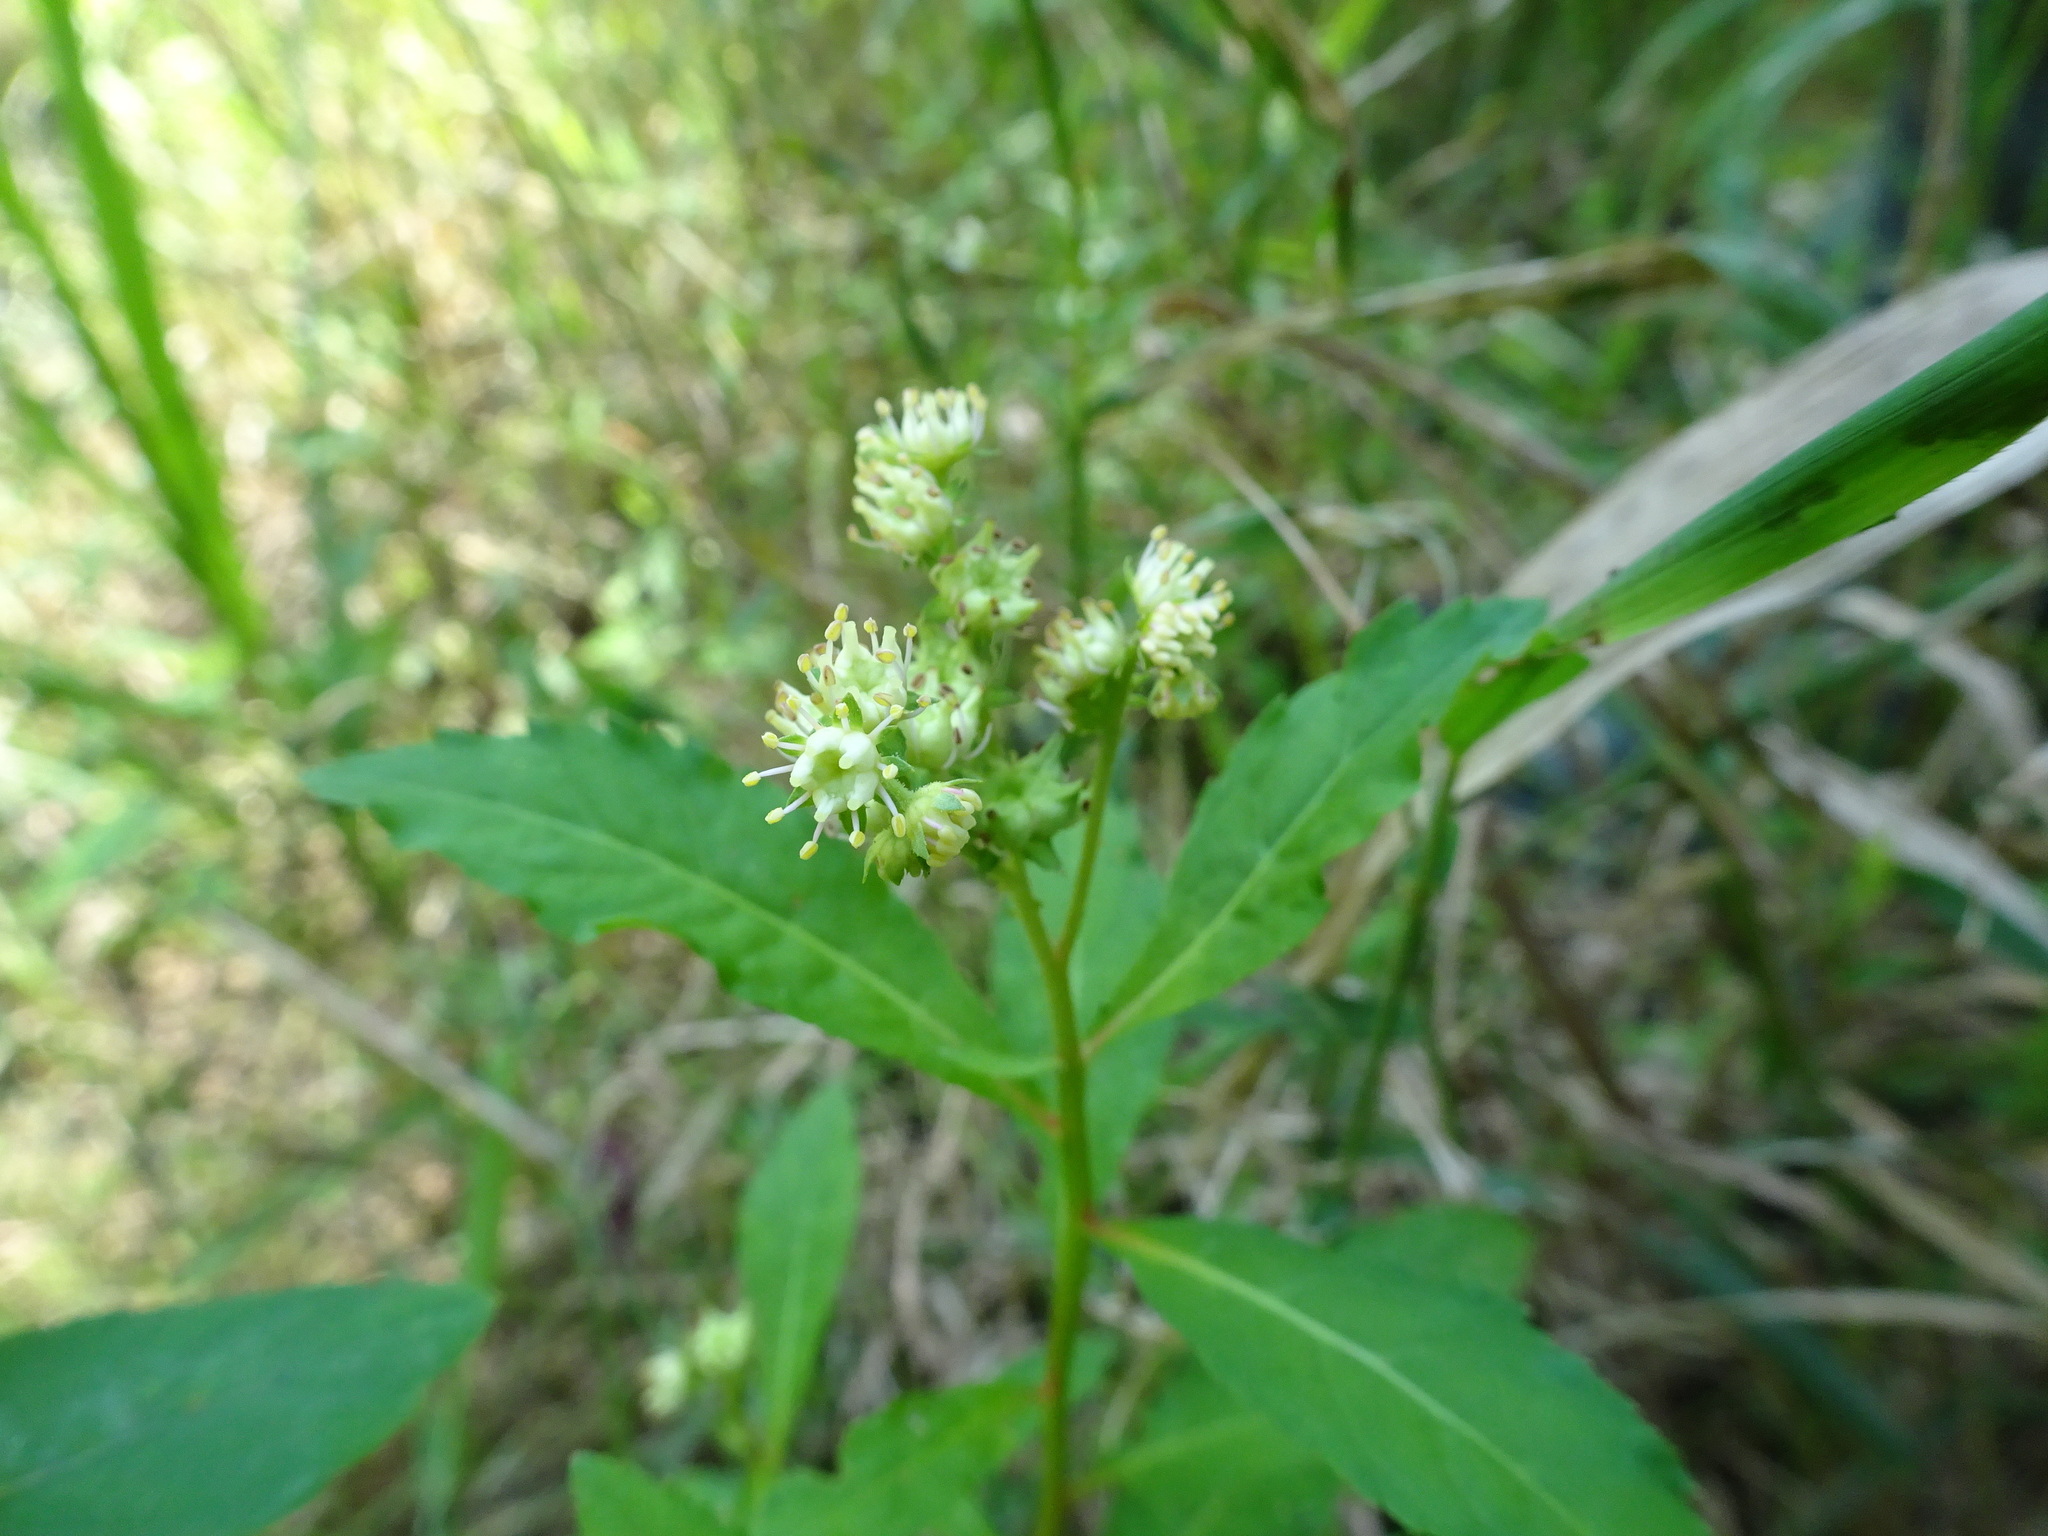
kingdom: Plantae
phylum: Tracheophyta
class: Magnoliopsida
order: Saxifragales
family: Penthoraceae
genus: Penthorum
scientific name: Penthorum sedoides
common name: Ditch stonecrop
